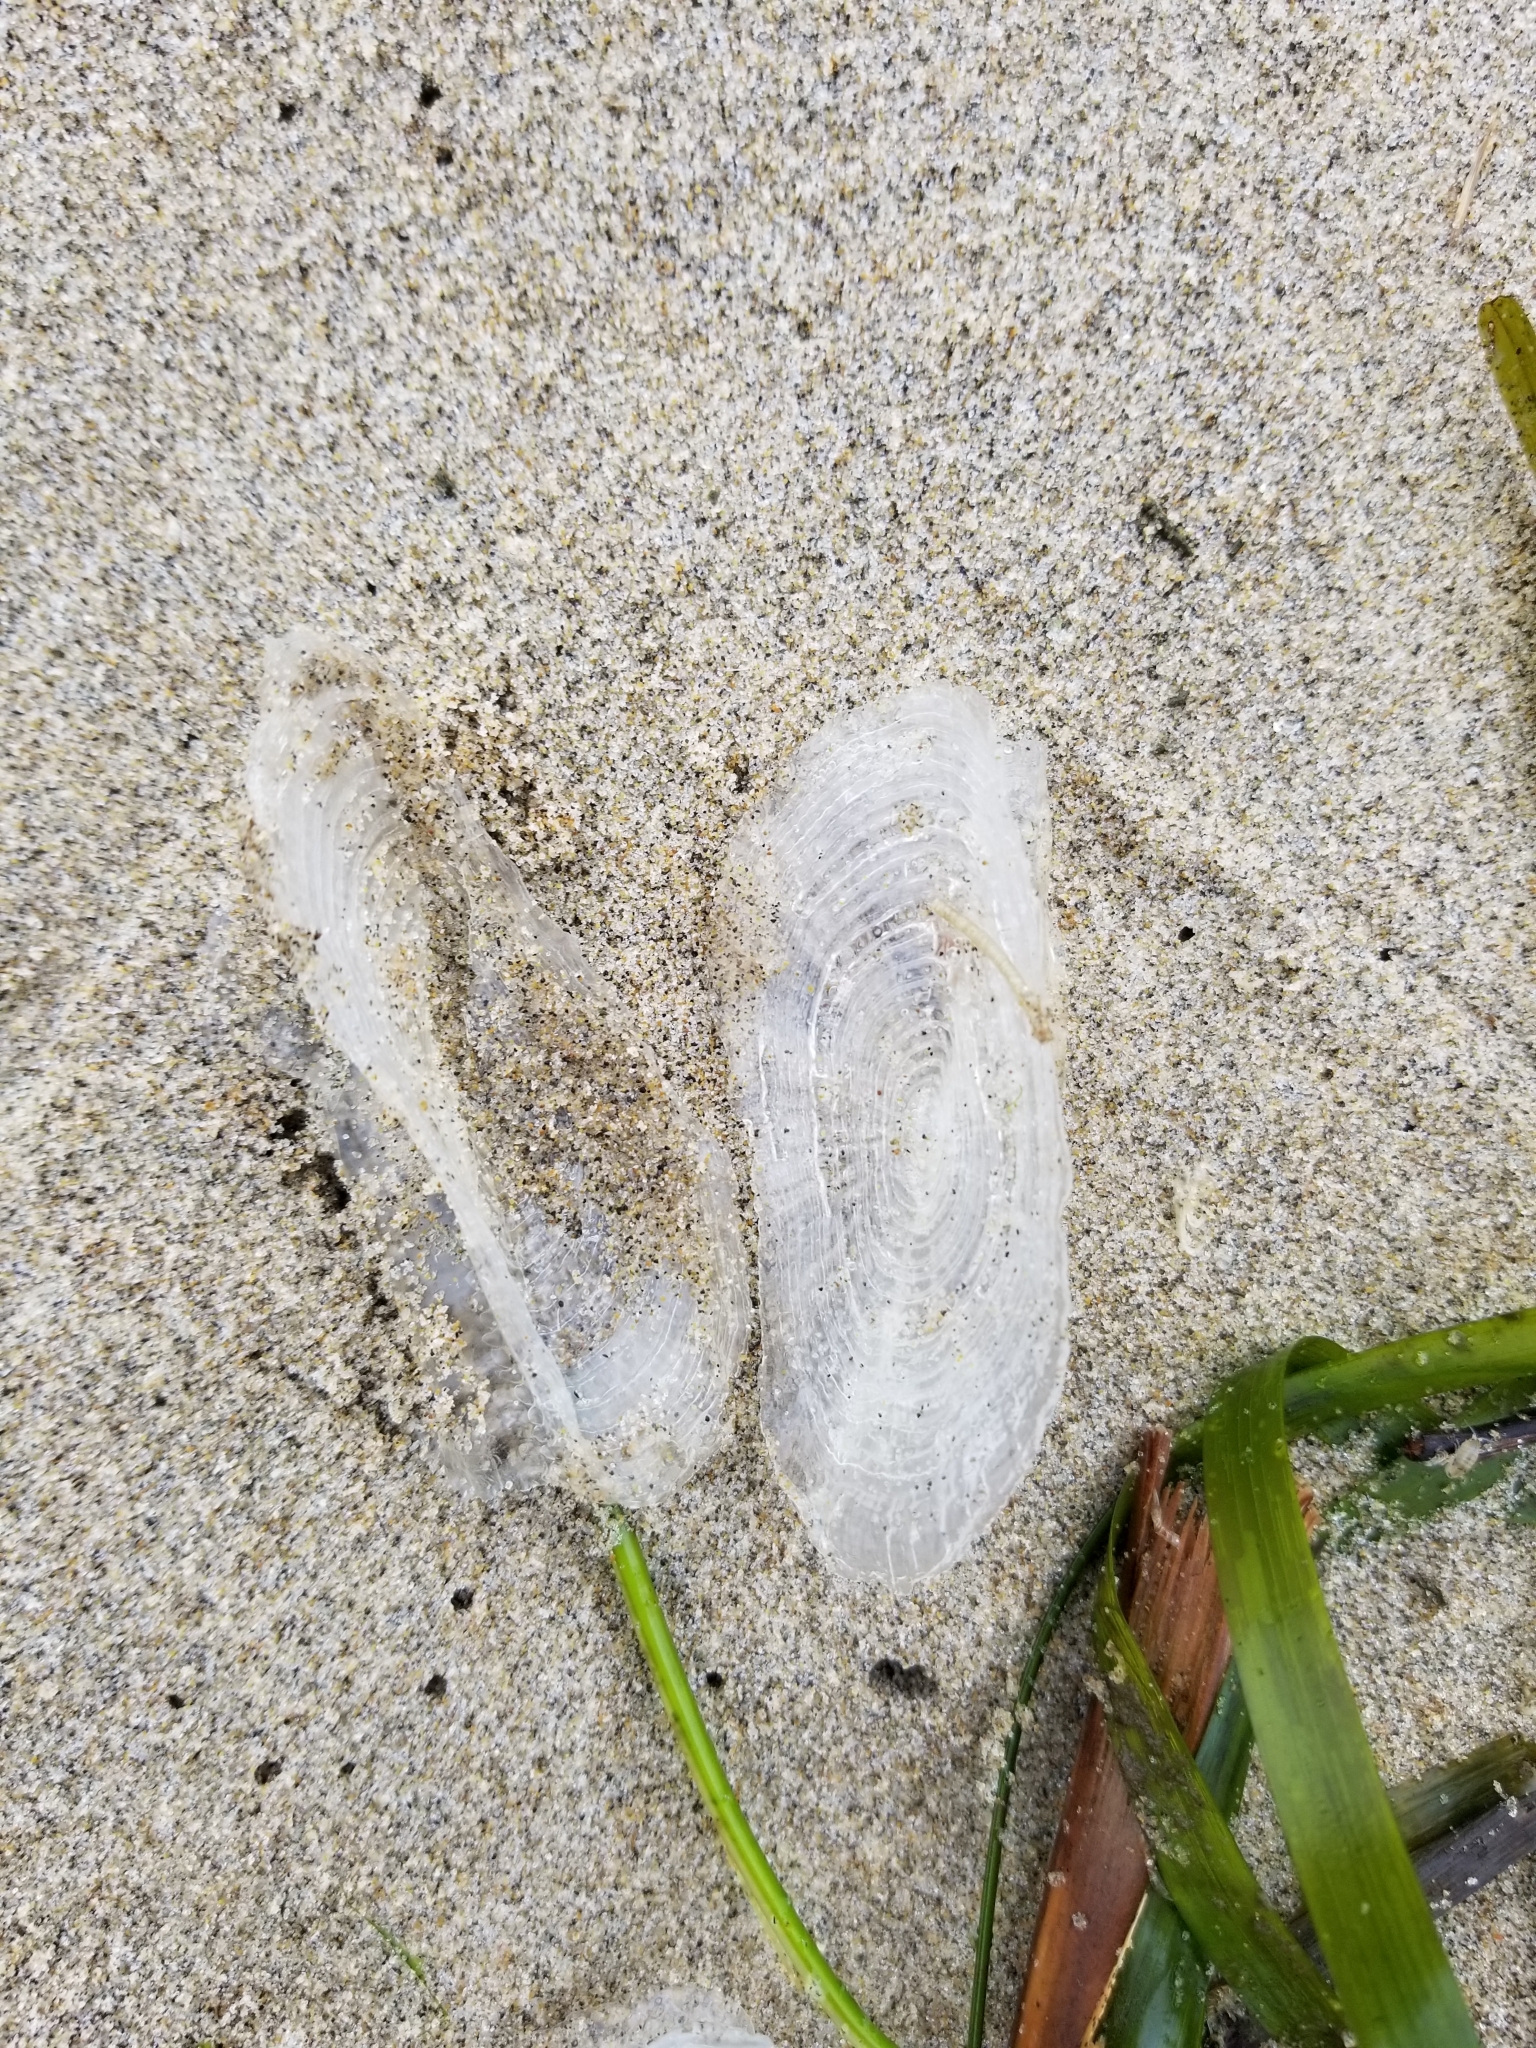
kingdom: Animalia
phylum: Cnidaria
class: Hydrozoa
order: Anthoathecata
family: Porpitidae
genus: Velella
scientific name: Velella velella
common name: By-the-wind-sailor
